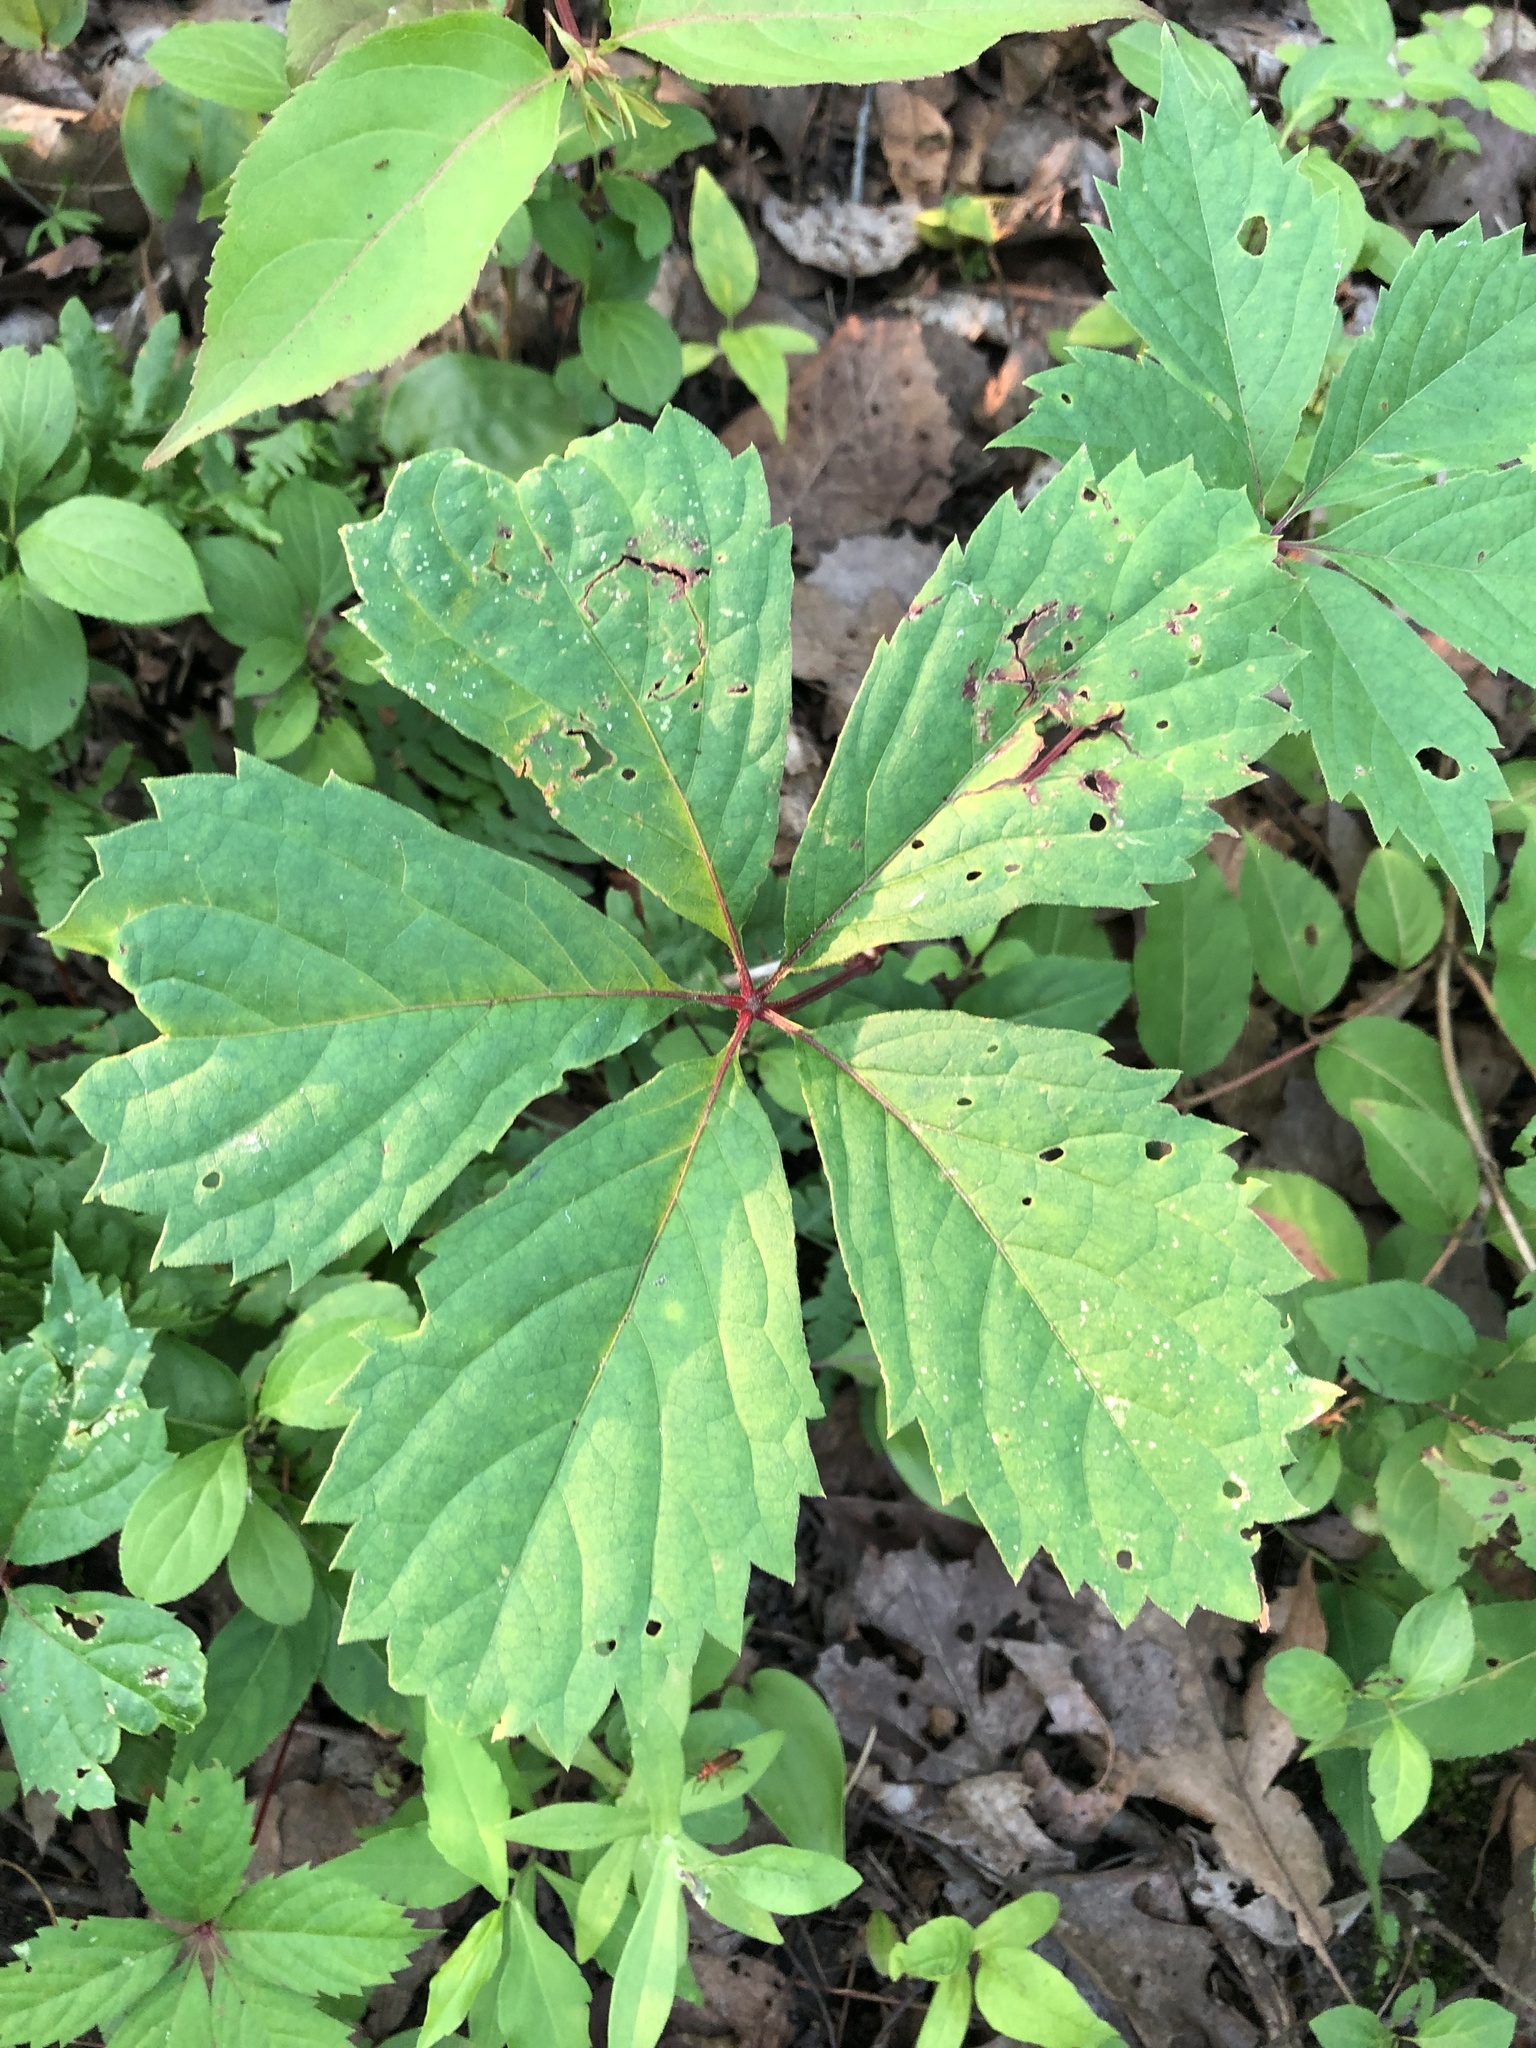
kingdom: Plantae
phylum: Tracheophyta
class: Magnoliopsida
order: Vitales
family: Vitaceae
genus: Parthenocissus
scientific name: Parthenocissus inserta
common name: False virginia-creeper
